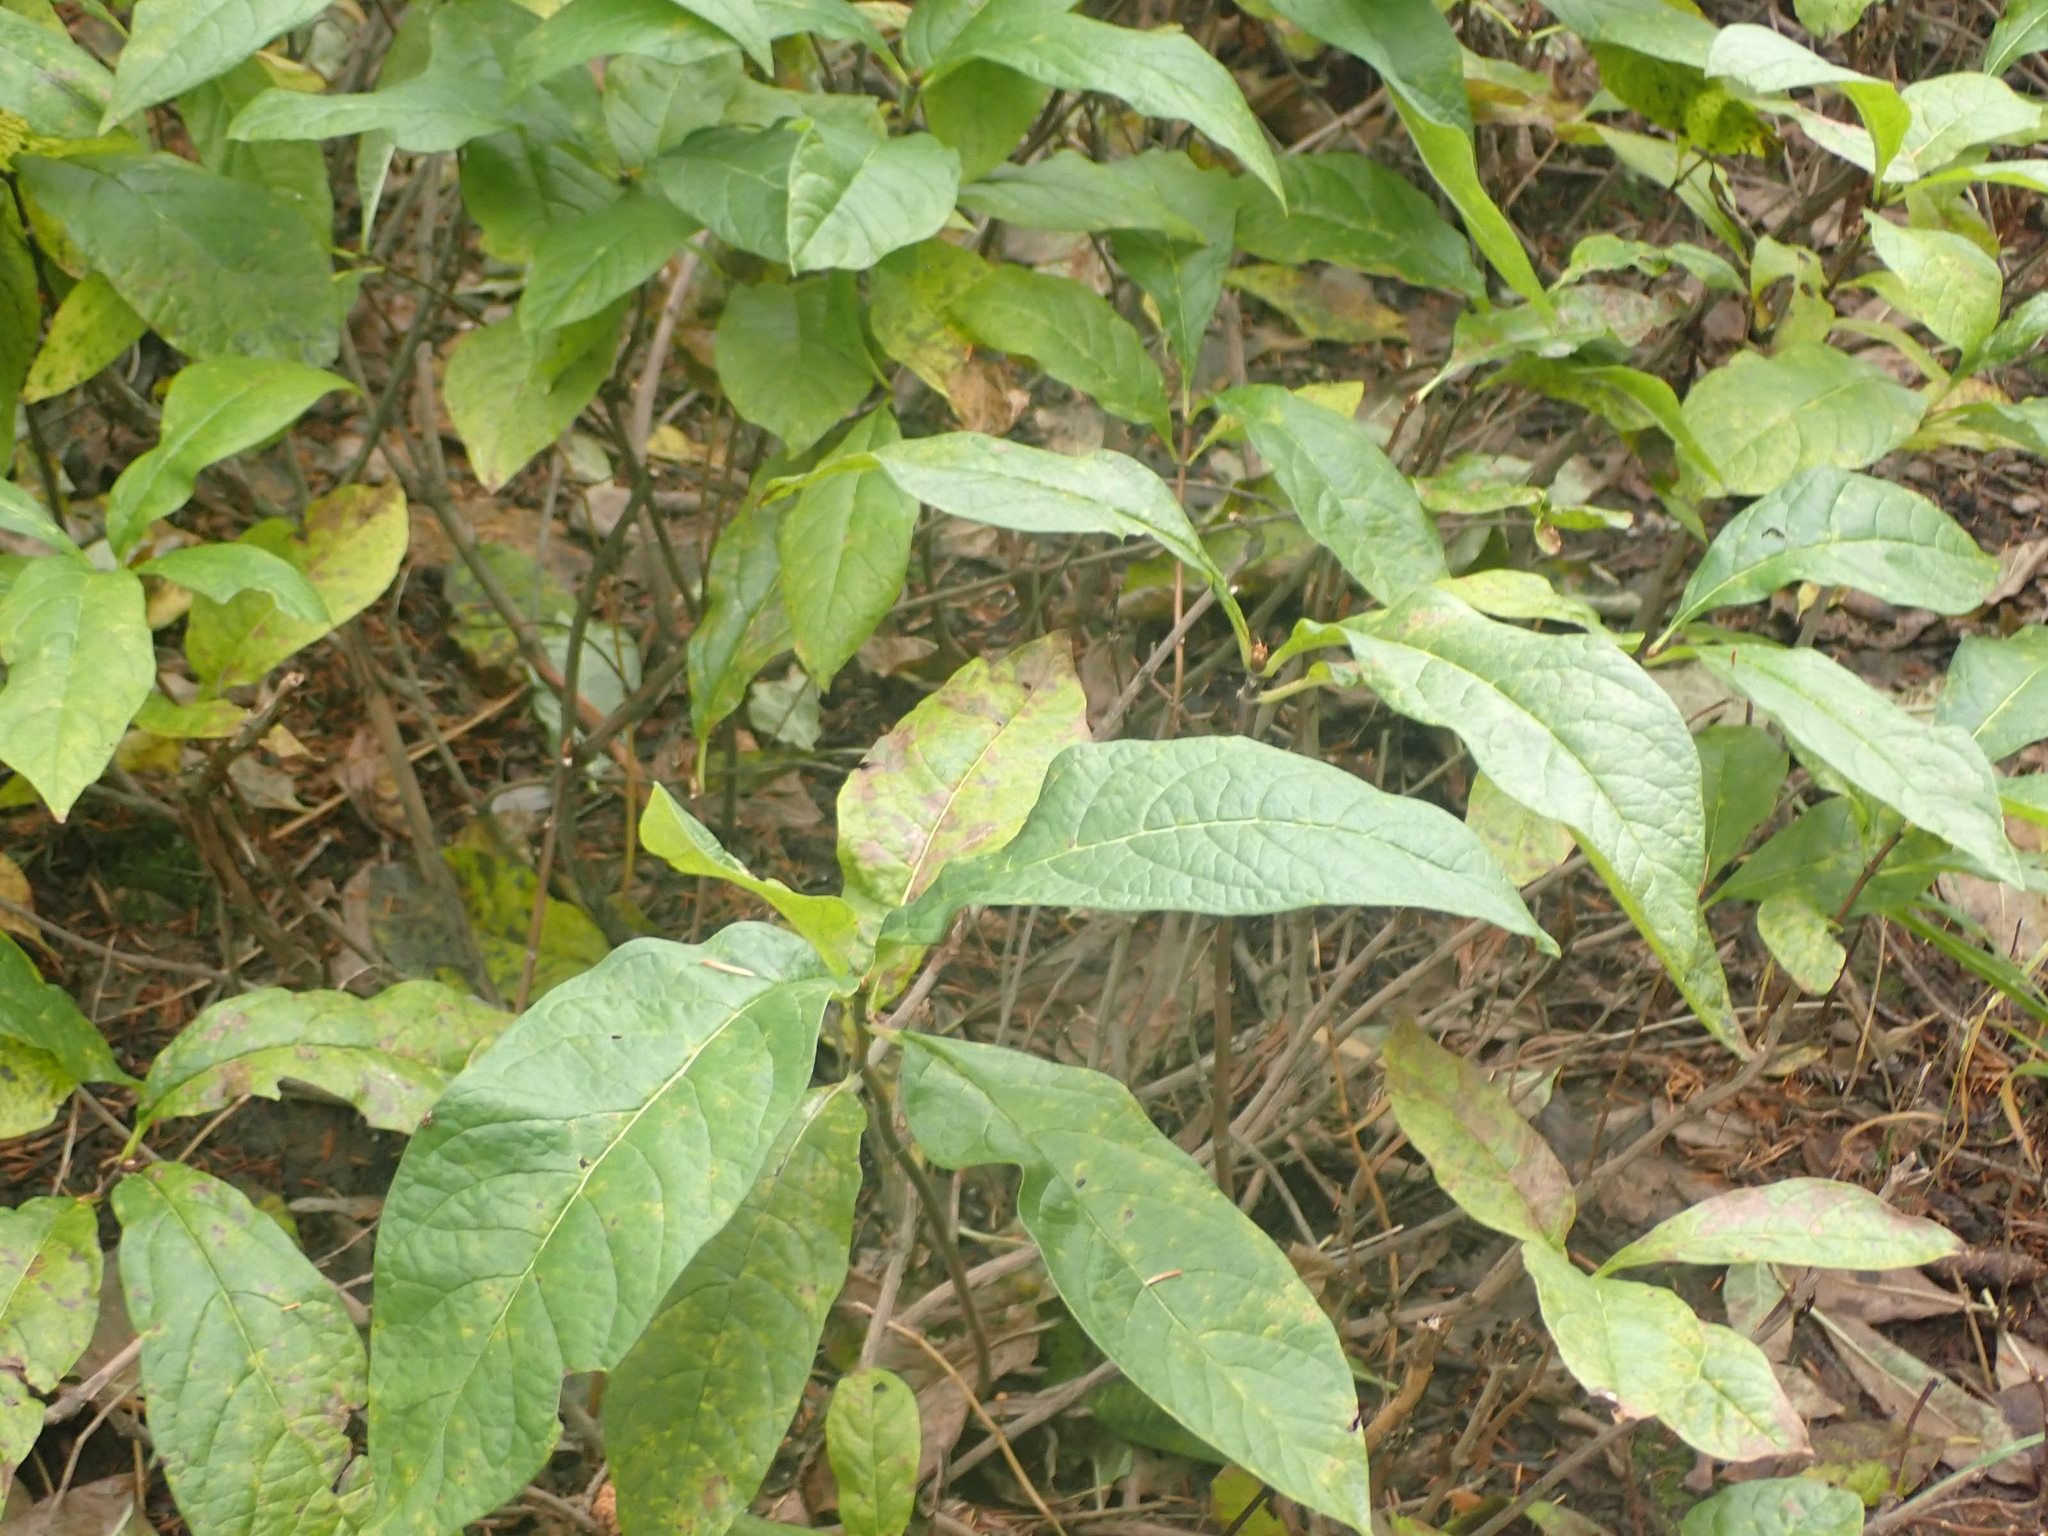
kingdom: Plantae
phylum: Tracheophyta
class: Magnoliopsida
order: Dipsacales
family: Caprifoliaceae
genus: Lonicera
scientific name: Lonicera involucrata
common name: Californian honeysuckle
